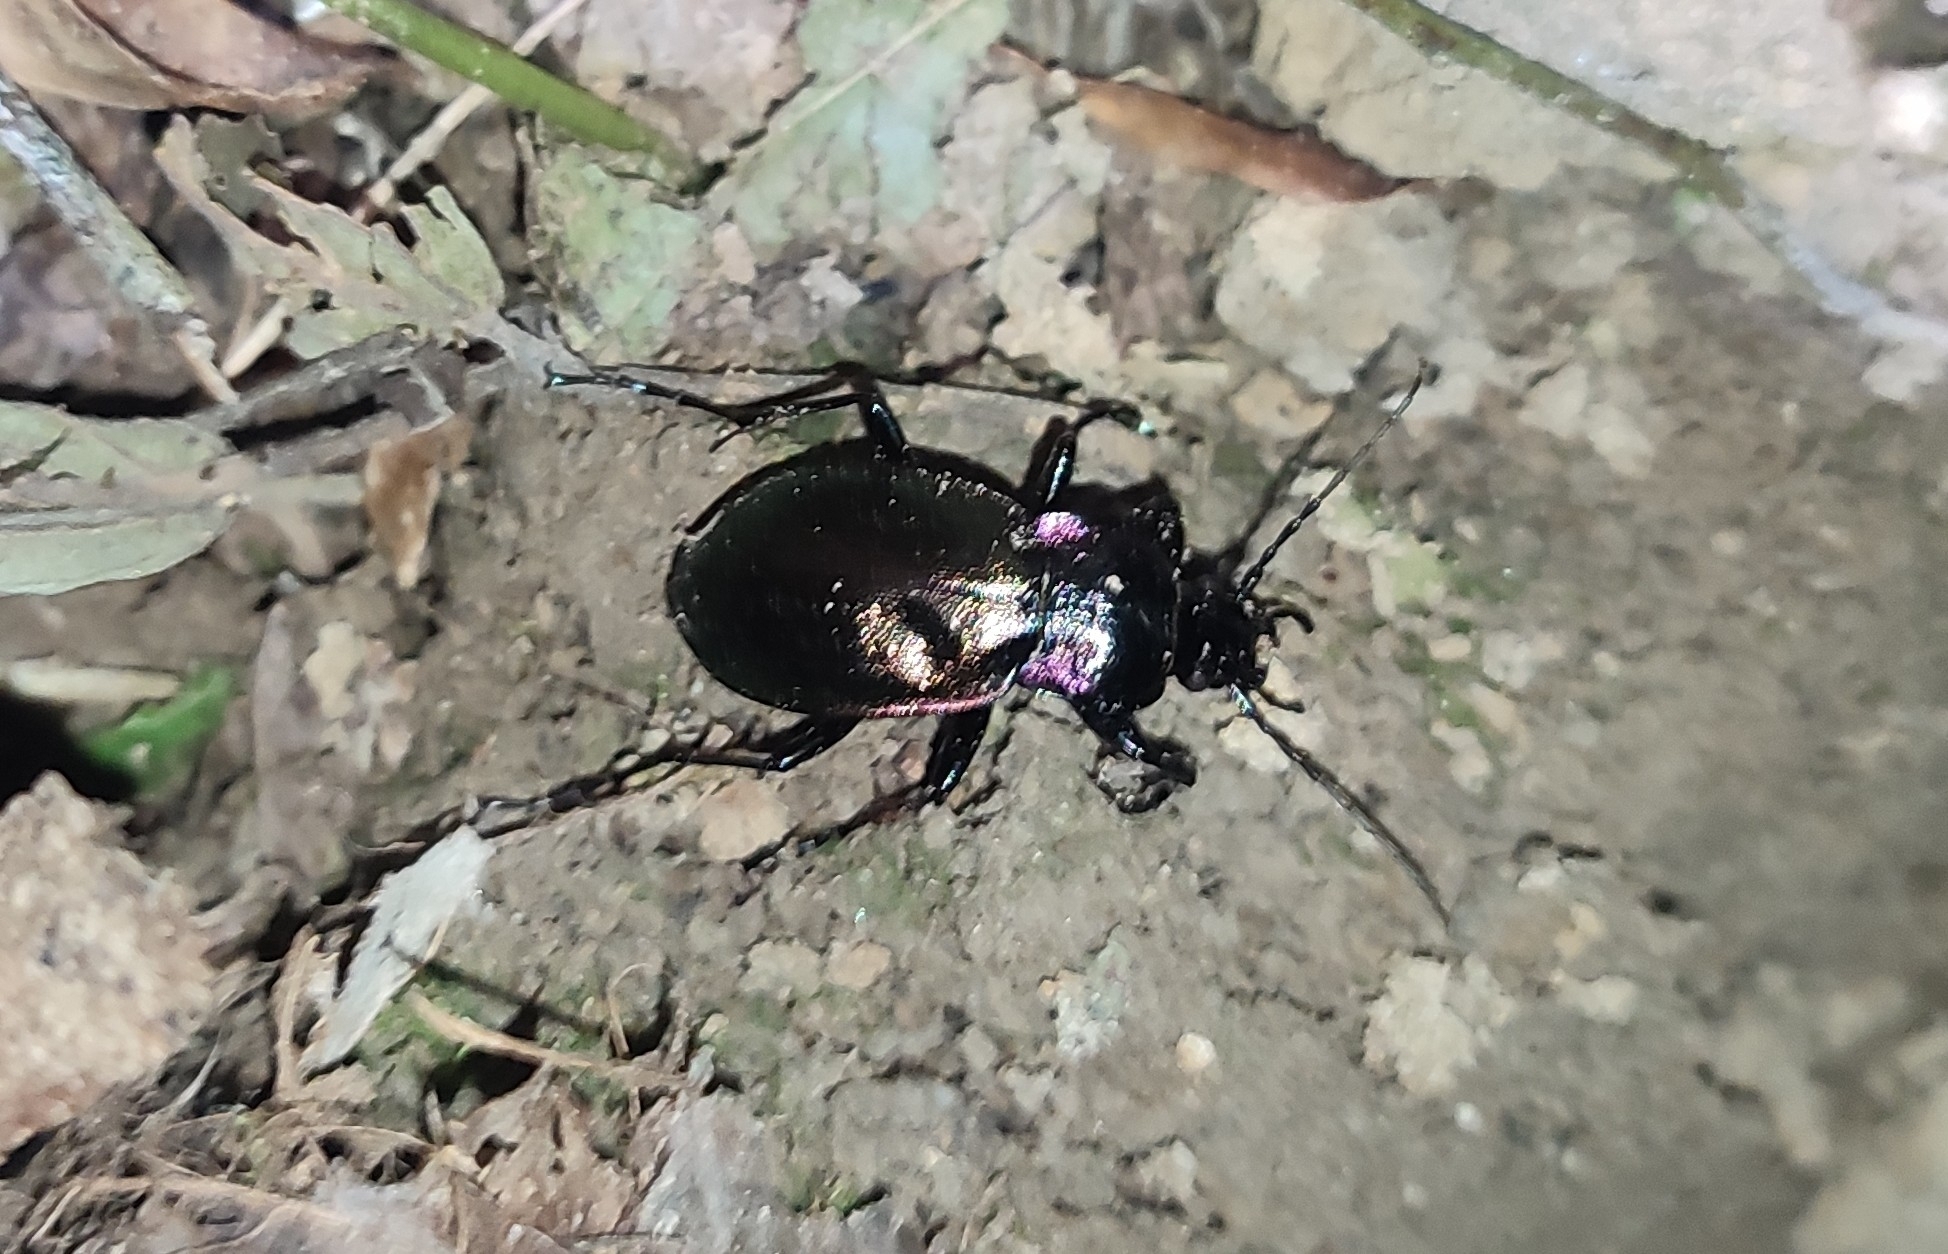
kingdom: Animalia
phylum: Arthropoda
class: Insecta
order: Coleoptera
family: Carabidae
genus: Carabus
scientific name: Carabus nemoralis
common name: European ground beetle
